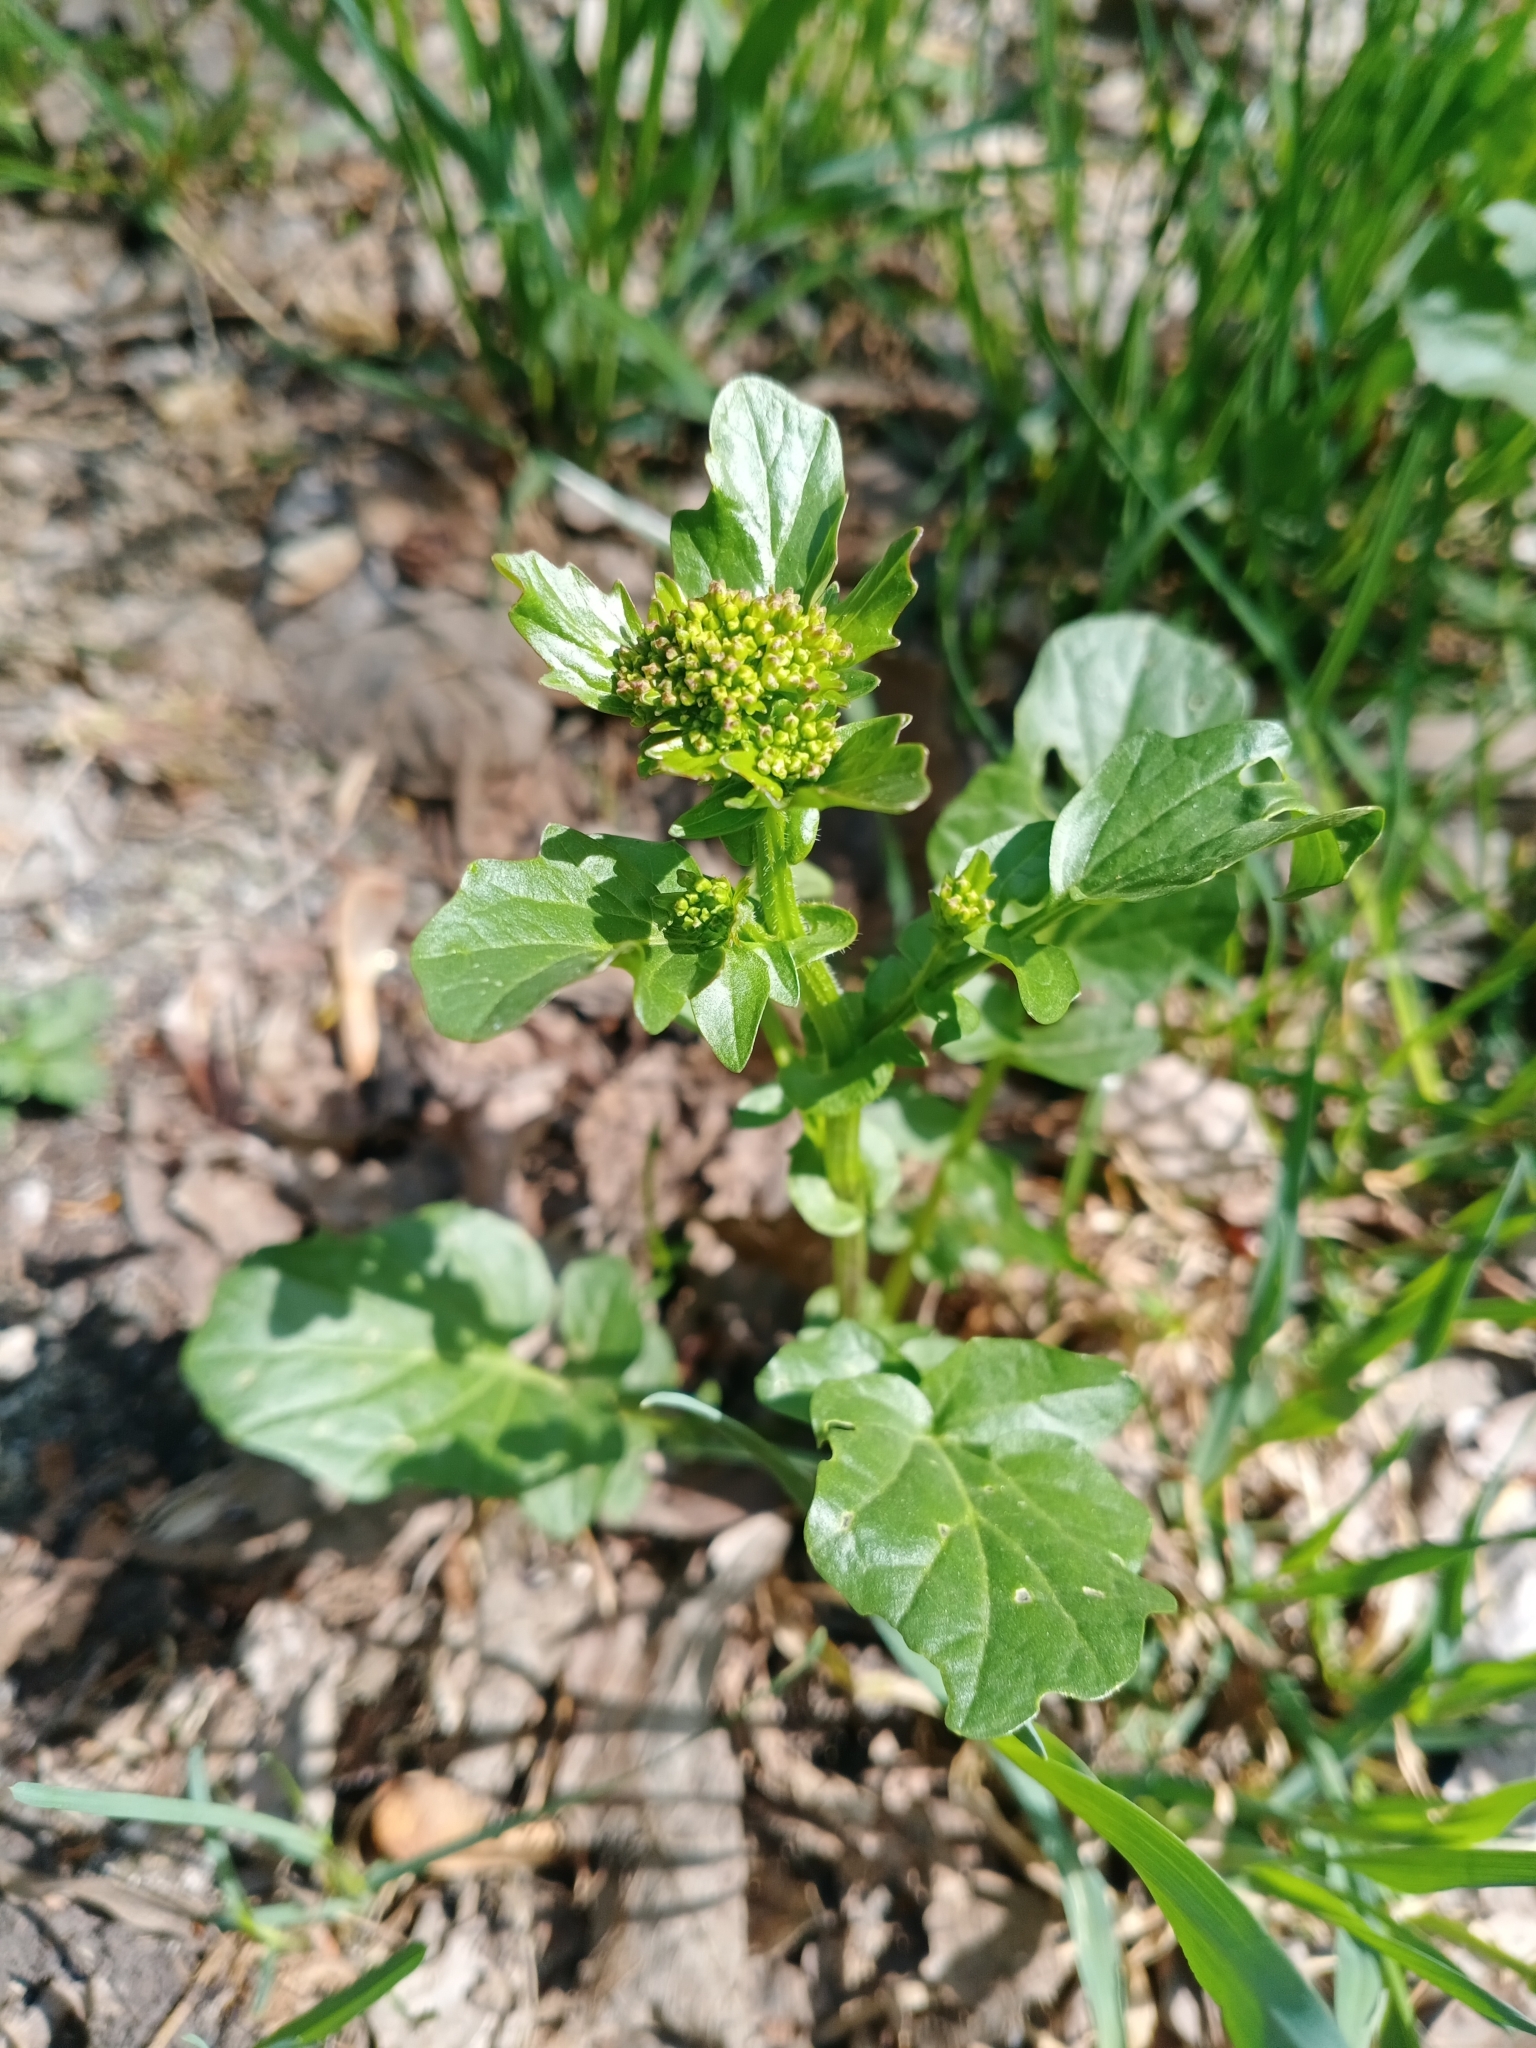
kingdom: Plantae
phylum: Tracheophyta
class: Magnoliopsida
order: Brassicales
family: Brassicaceae
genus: Barbarea
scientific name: Barbarea vulgaris
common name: Cressy-greens
